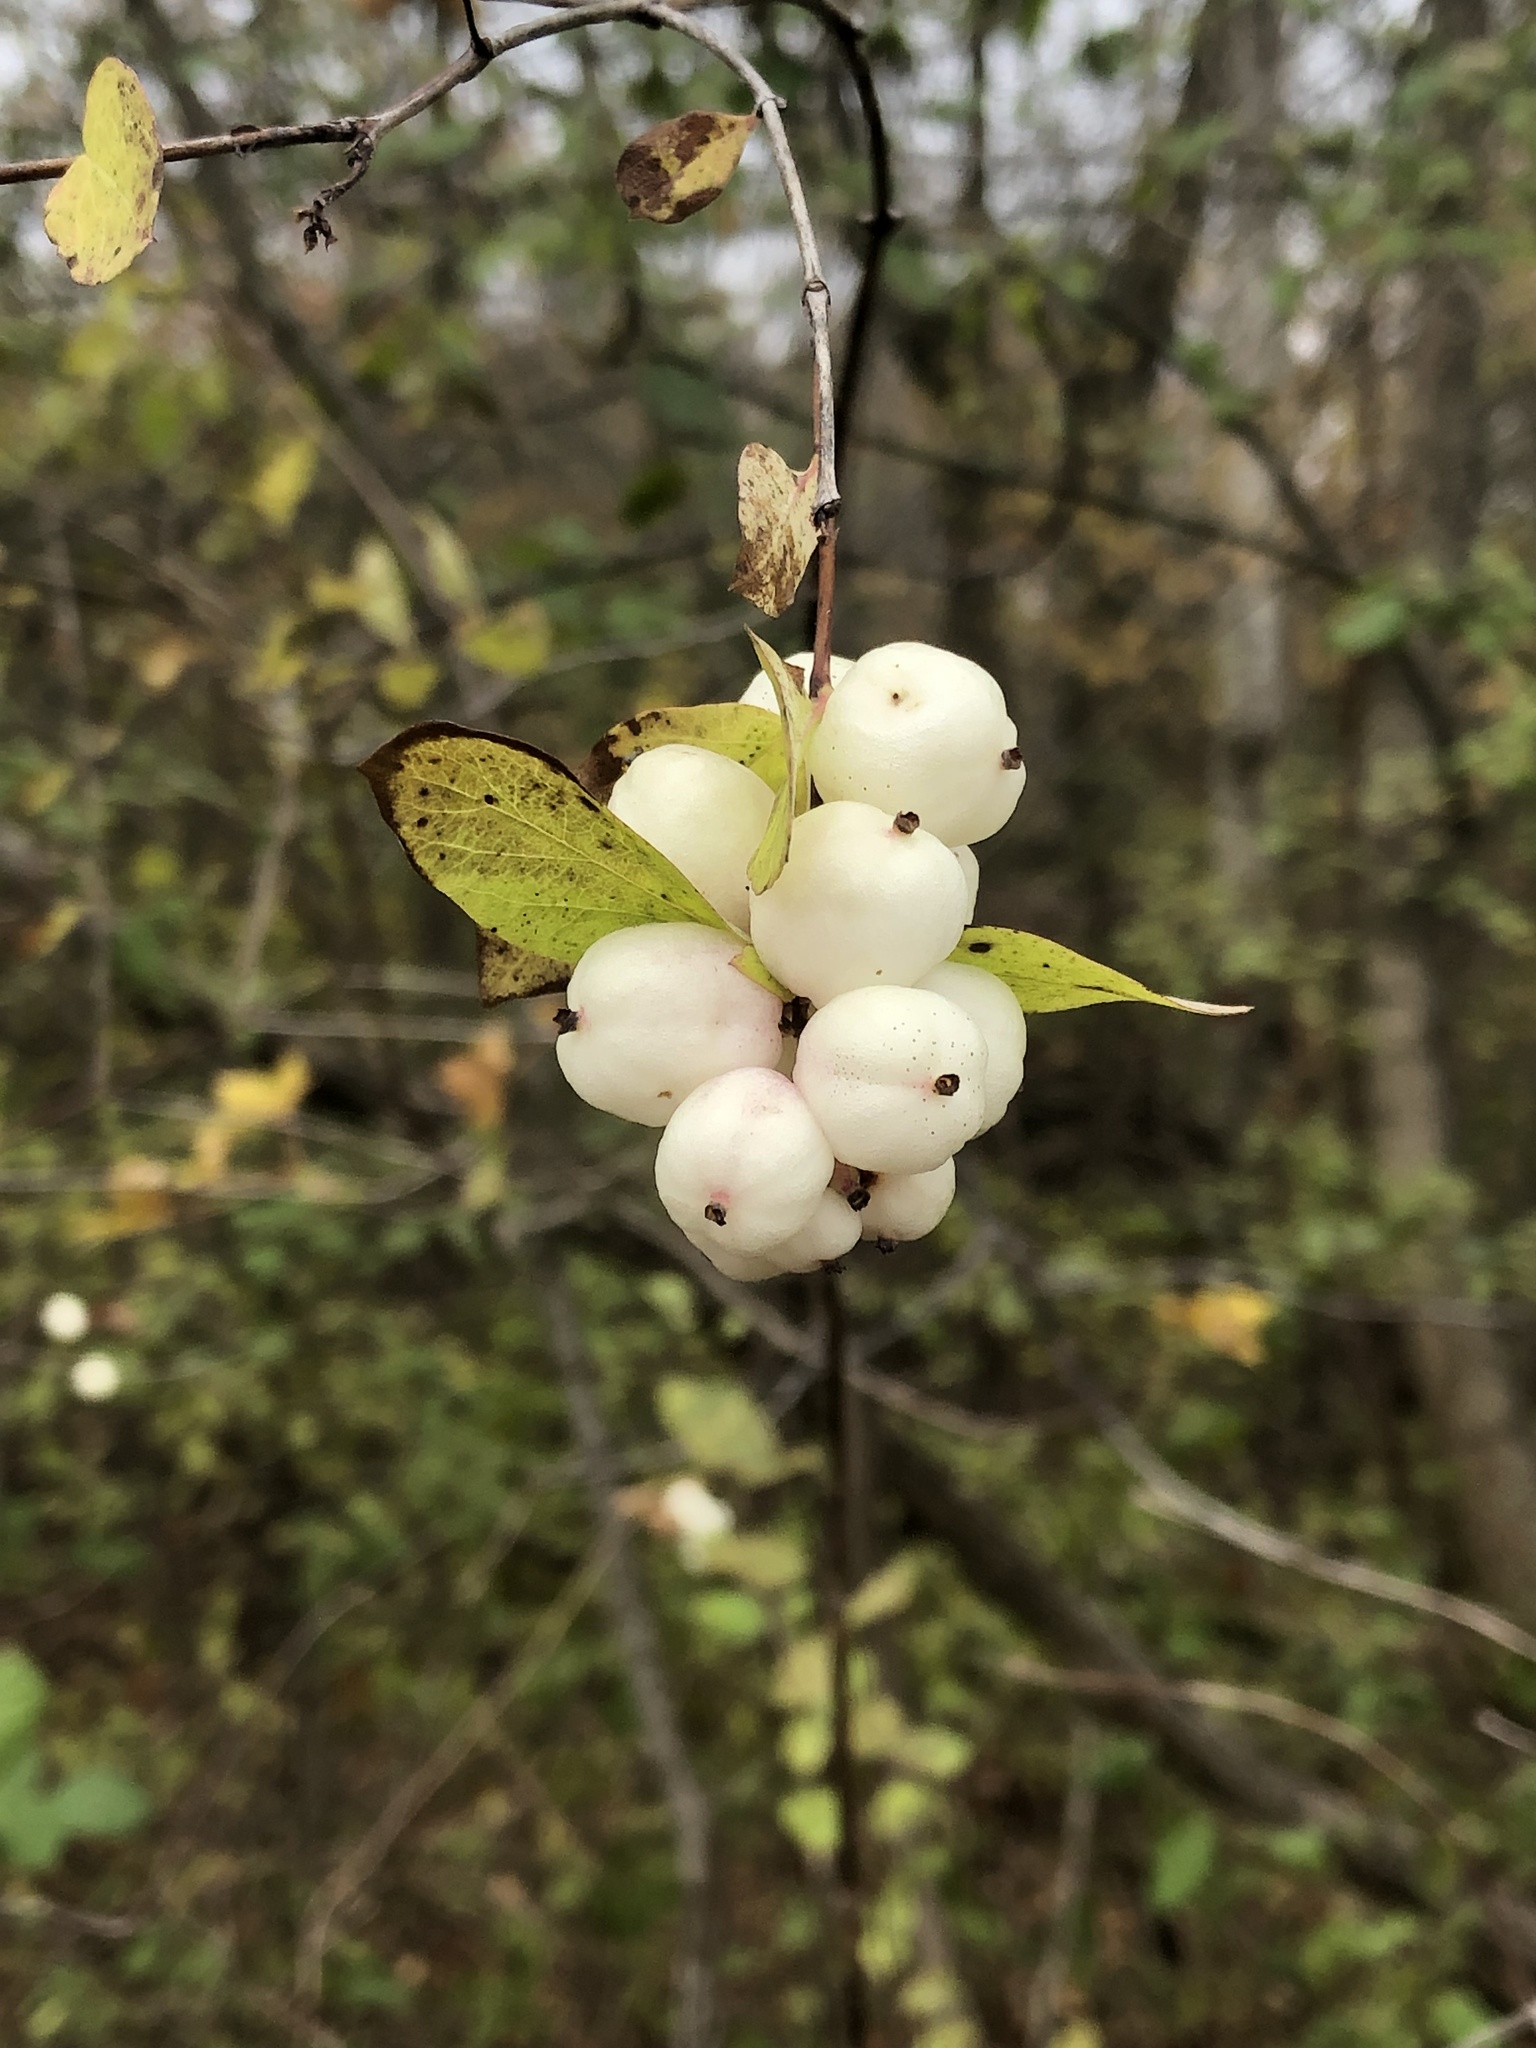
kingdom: Plantae
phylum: Tracheophyta
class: Magnoliopsida
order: Dipsacales
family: Caprifoliaceae
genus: Symphoricarpos
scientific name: Symphoricarpos albus
